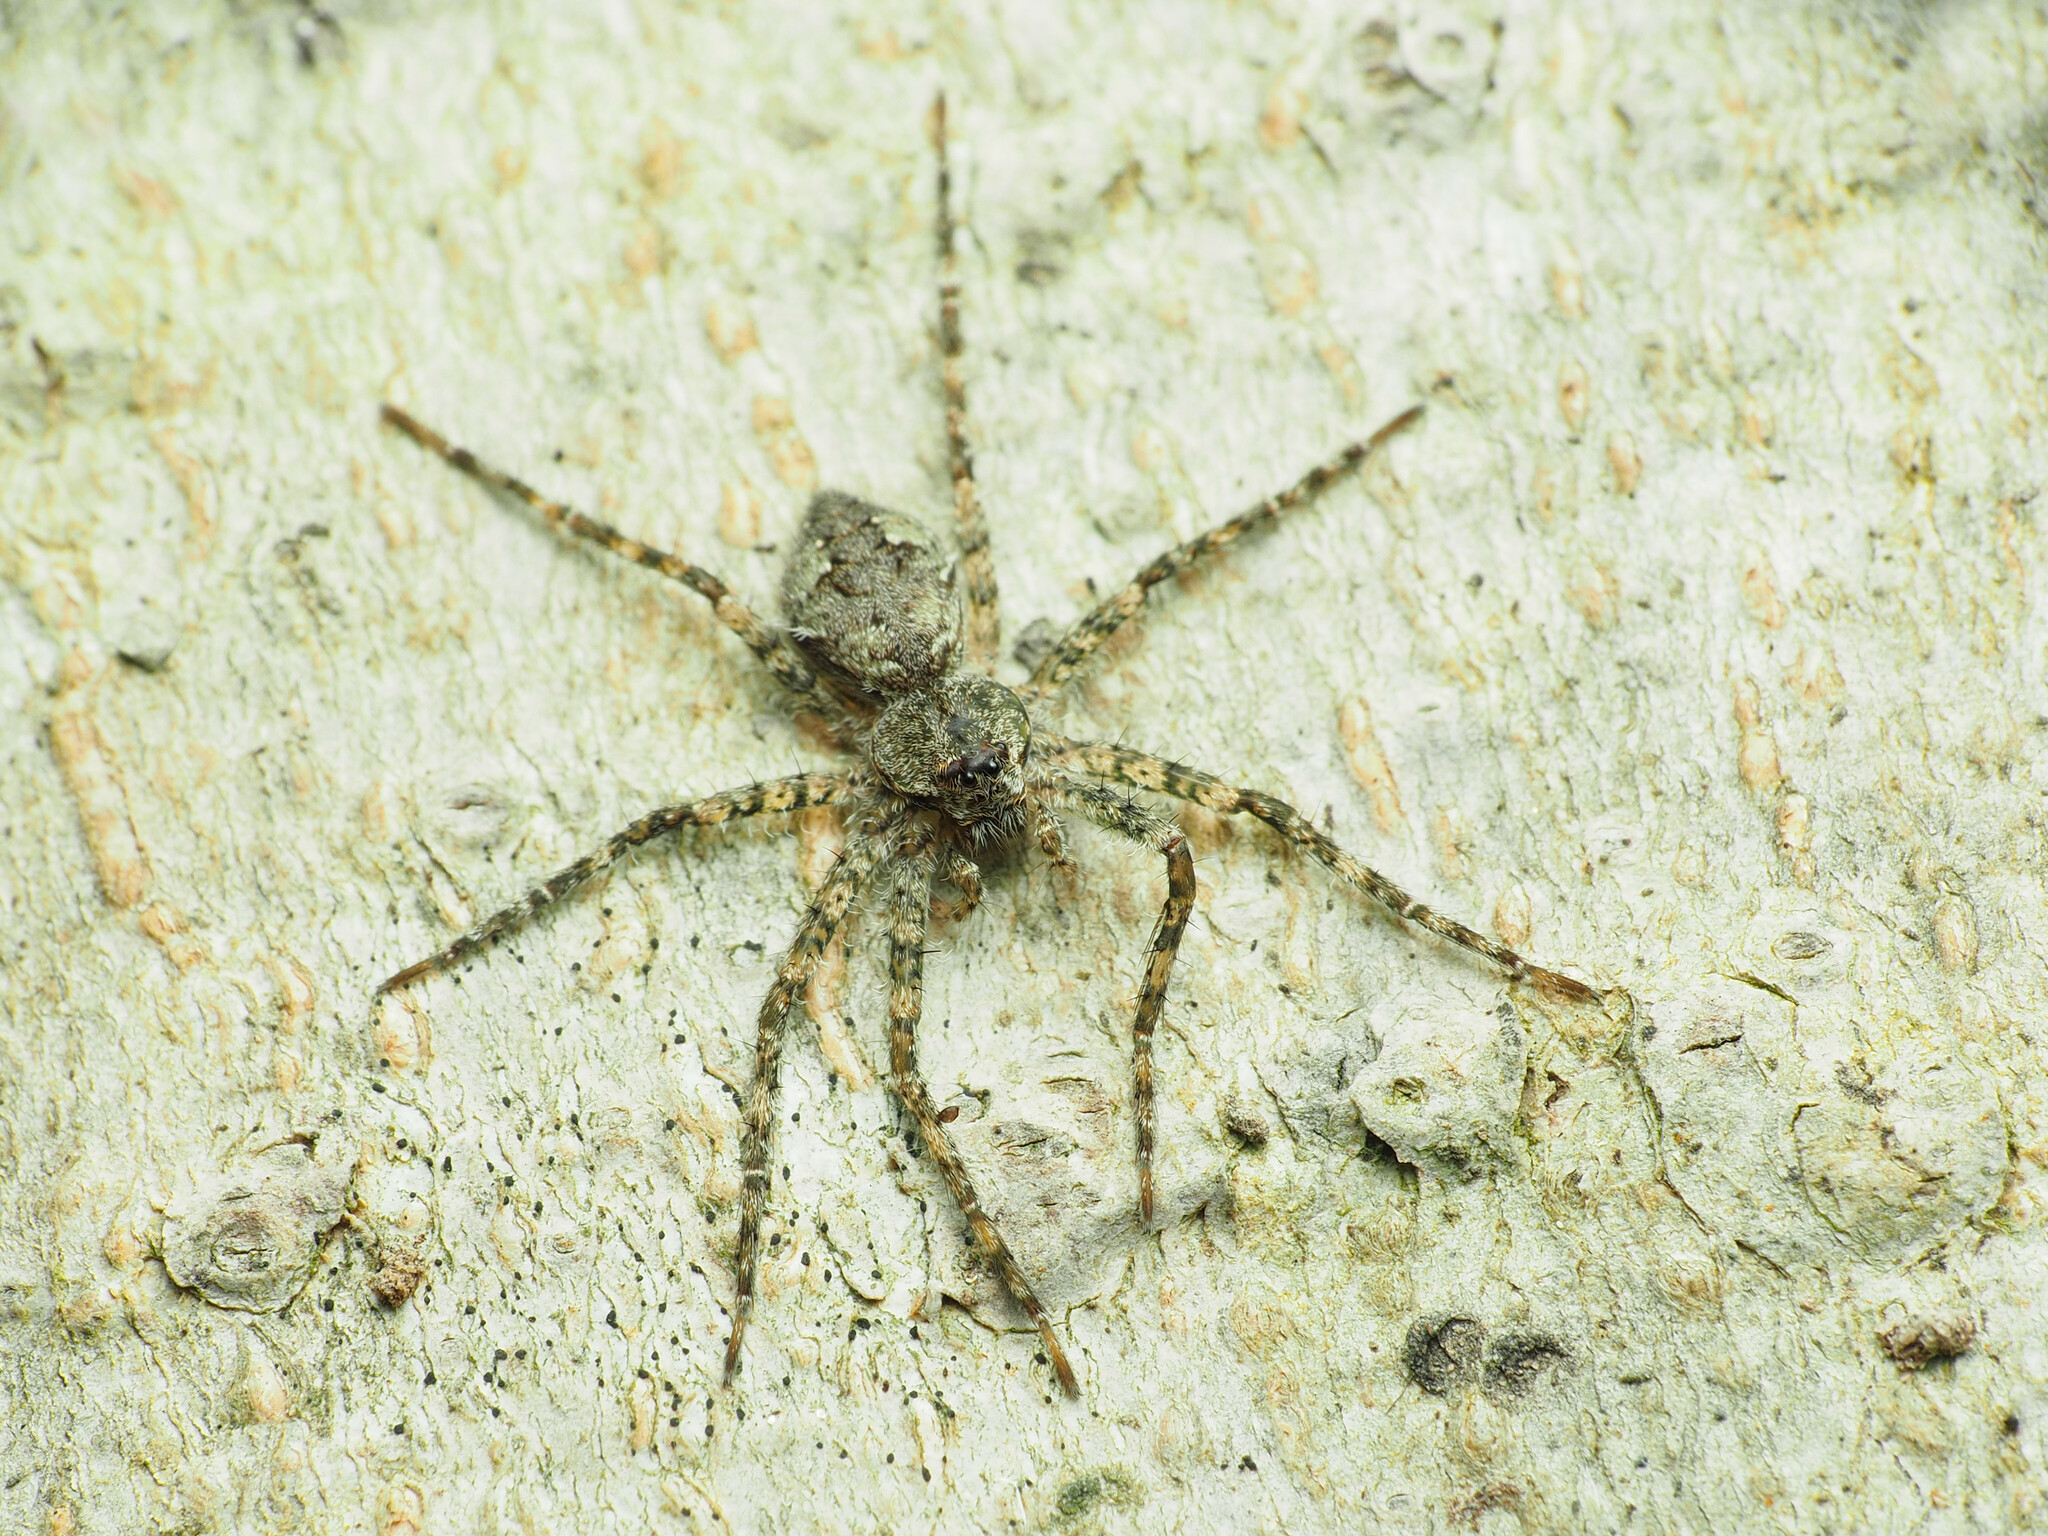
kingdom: Animalia
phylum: Arthropoda
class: Arachnida
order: Araneae
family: Pisauridae
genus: Dolomedes
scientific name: Dolomedes albineus
